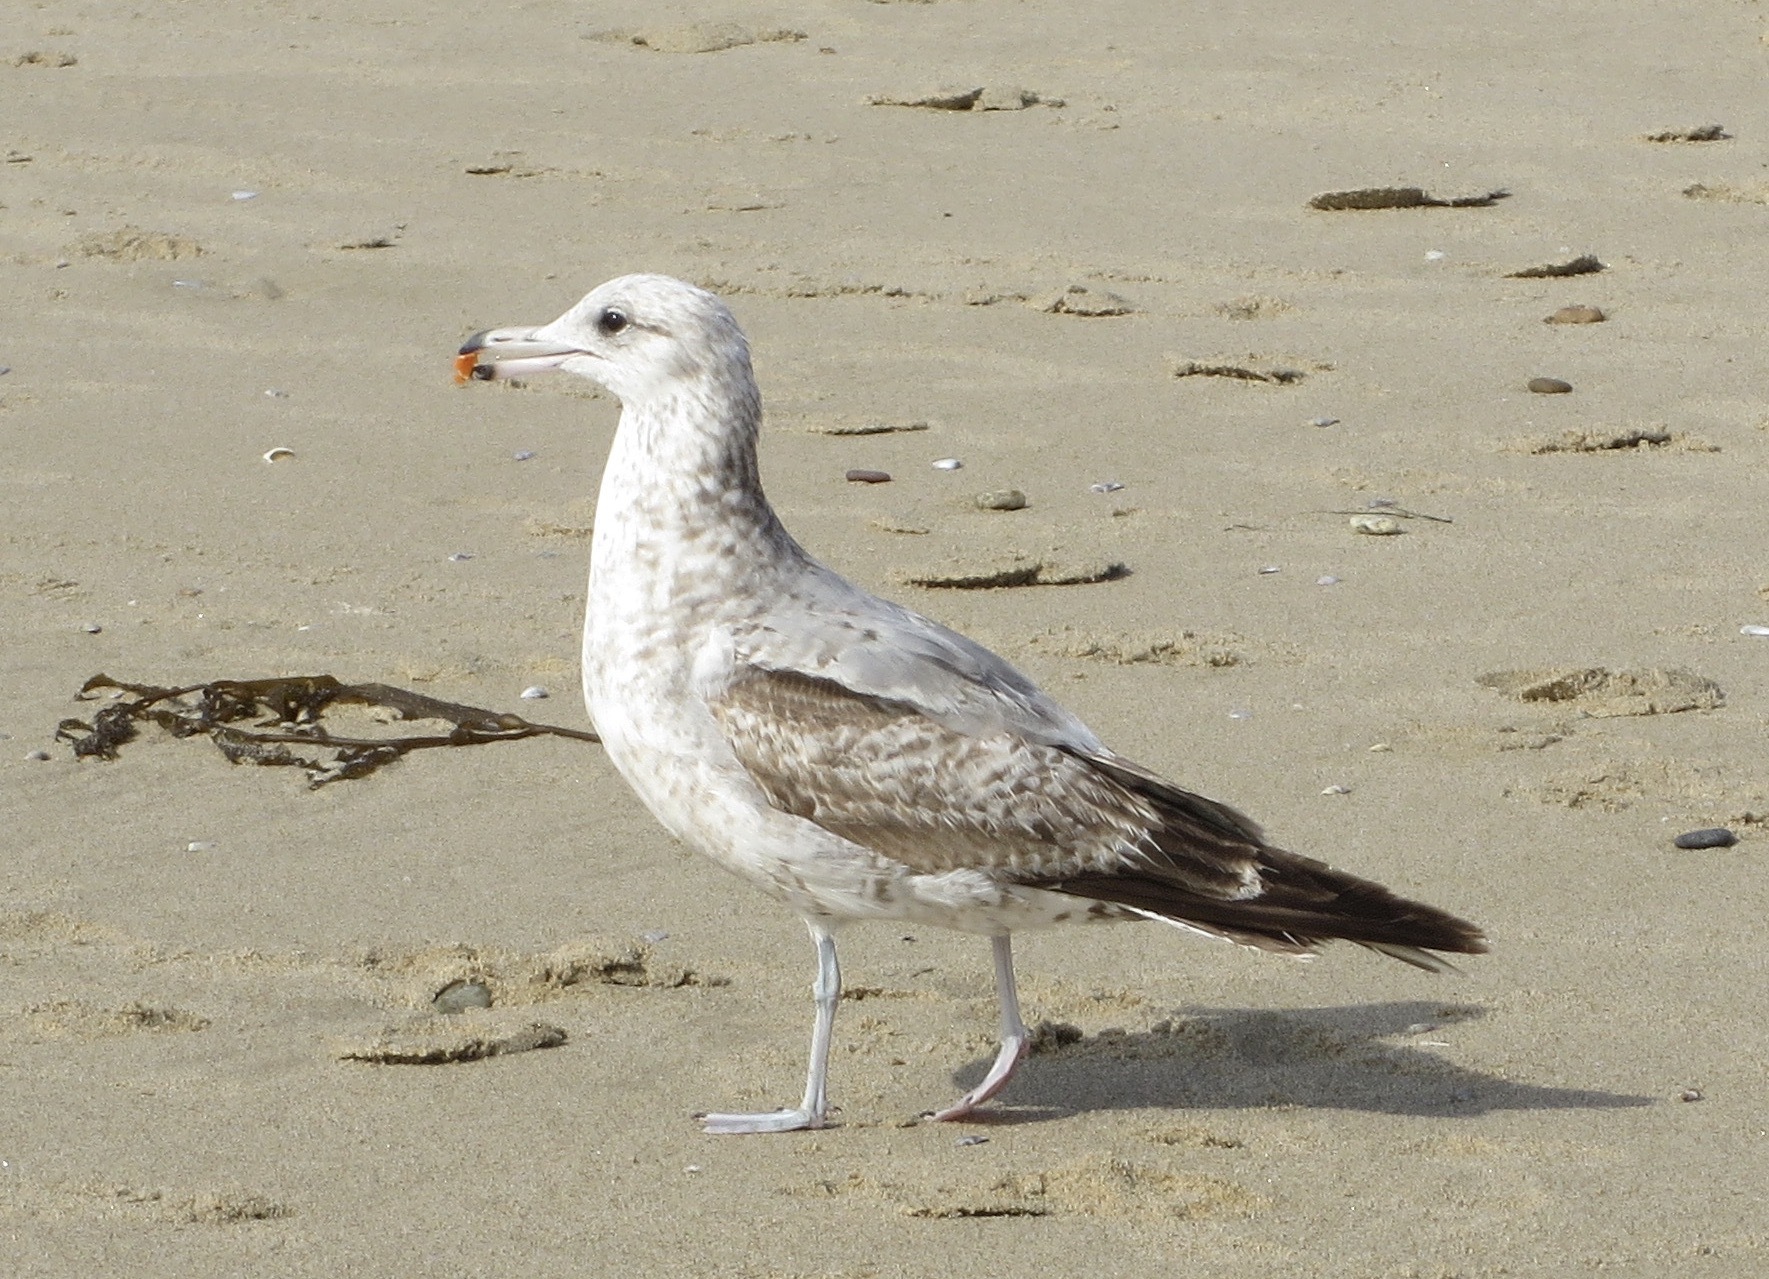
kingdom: Animalia
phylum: Chordata
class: Aves
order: Charadriiformes
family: Laridae
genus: Larus
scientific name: Larus californicus
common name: California gull
